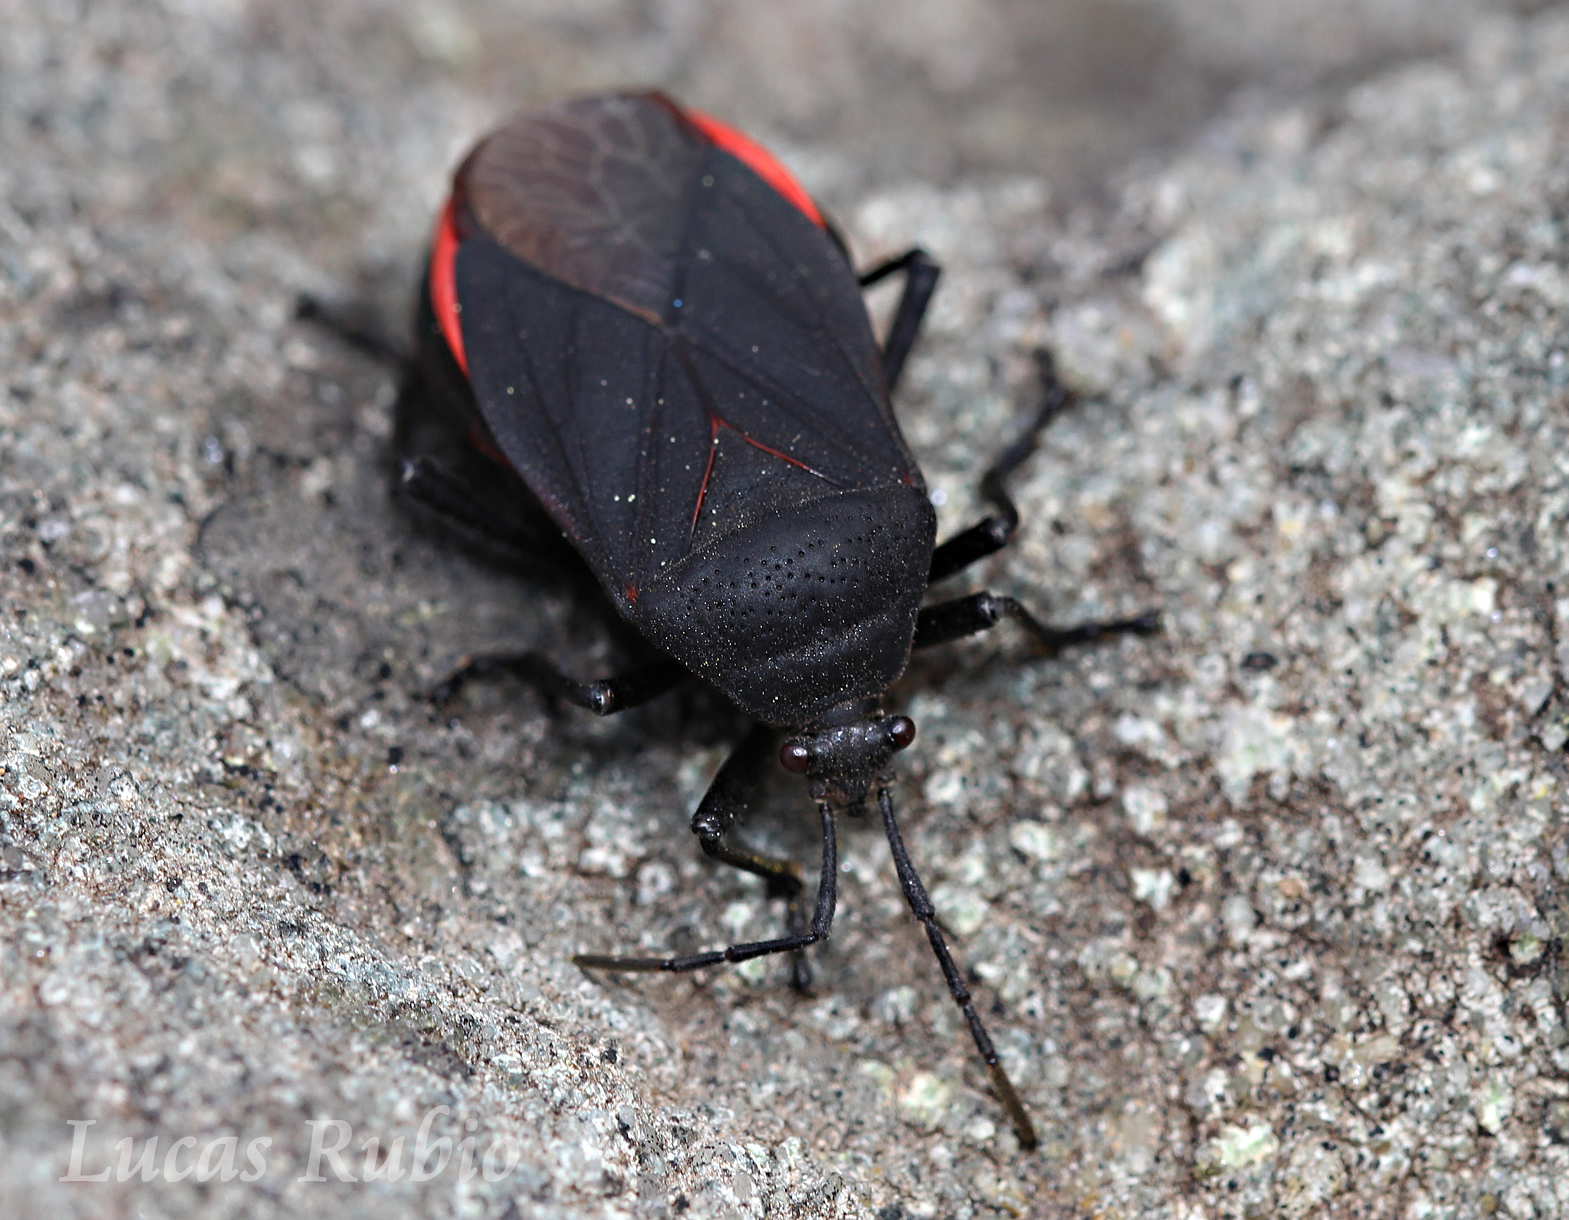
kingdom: Animalia
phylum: Arthropoda
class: Insecta
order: Hemiptera
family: Largidae
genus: Largus
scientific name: Largus rufipennis
